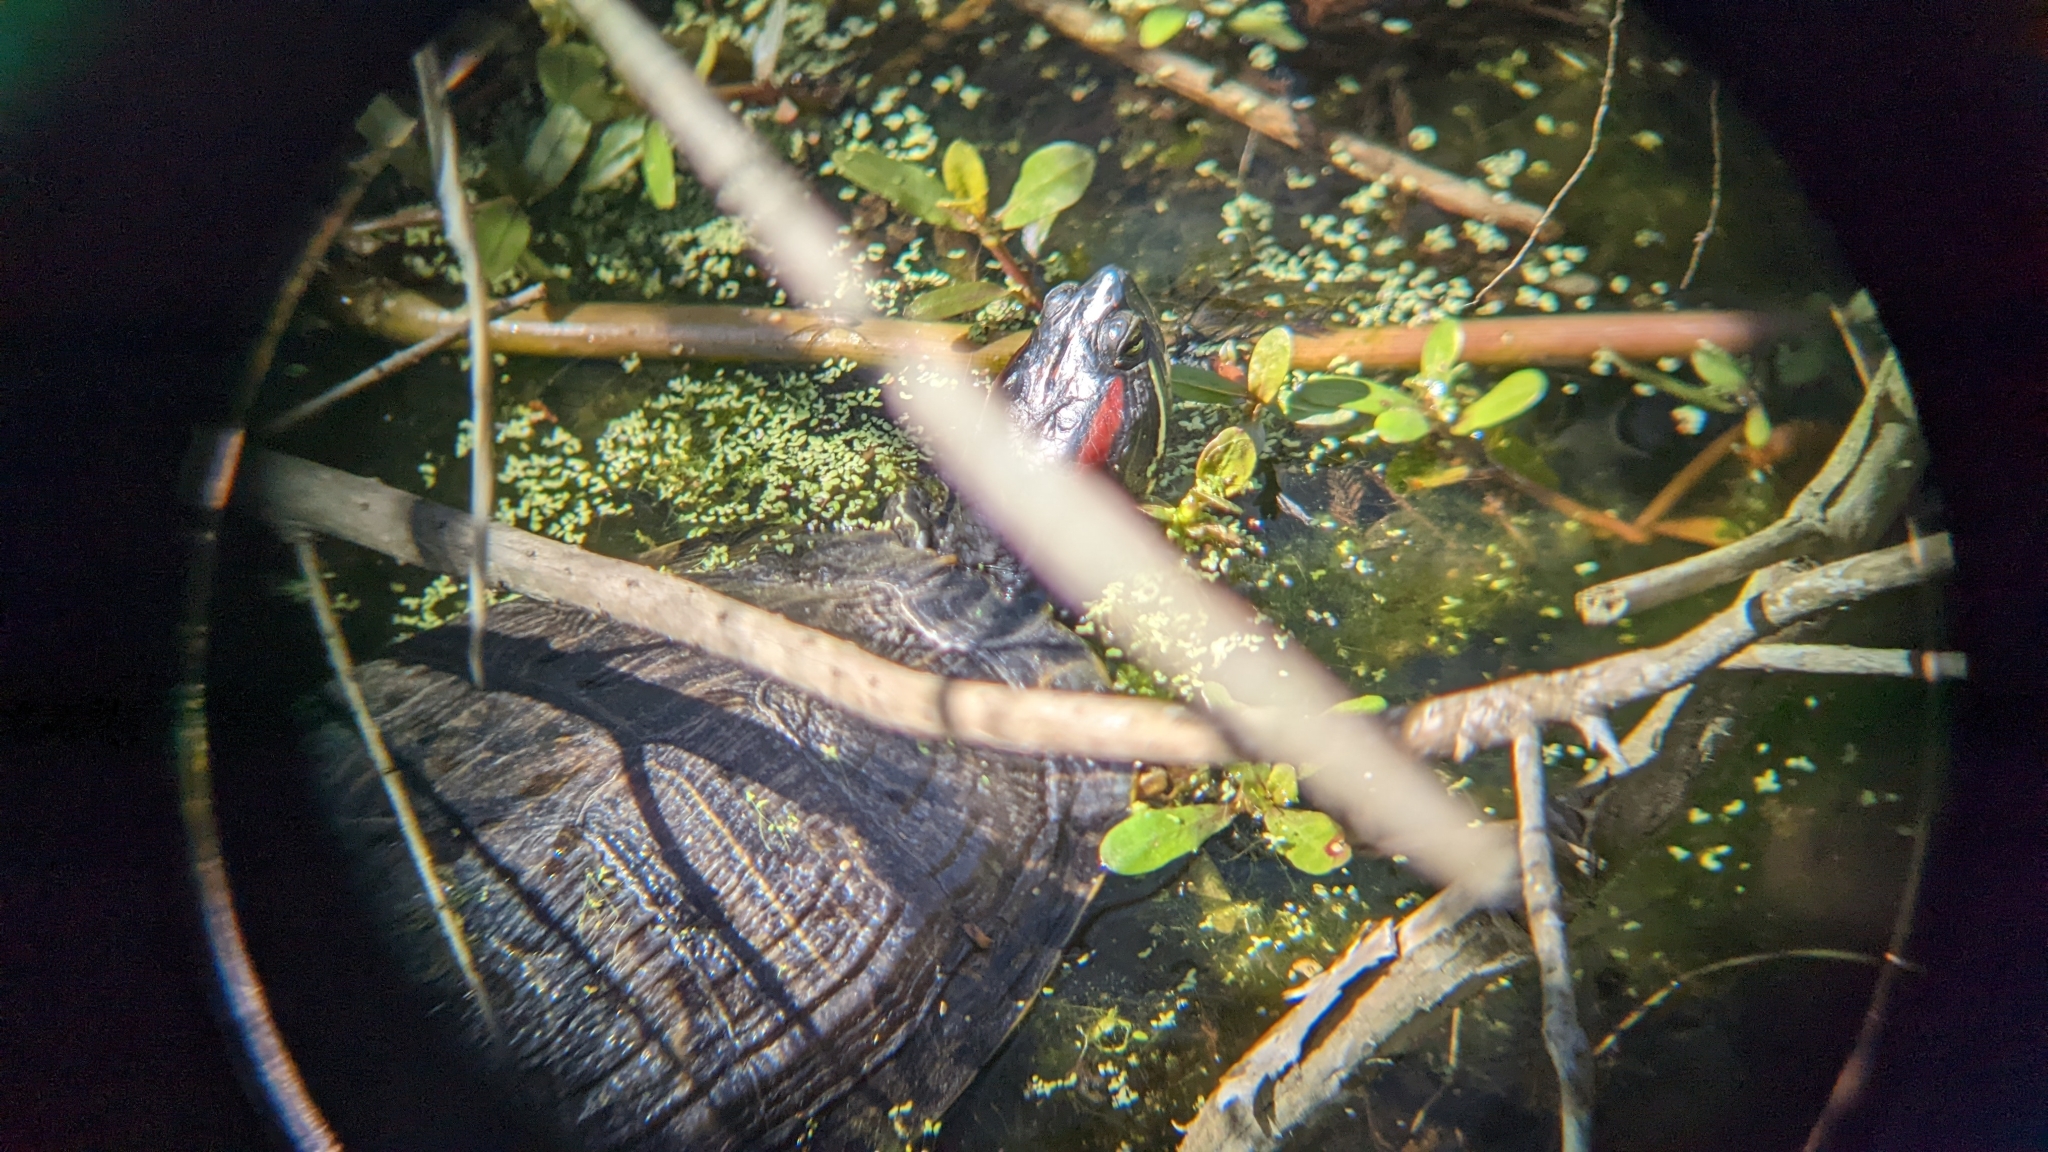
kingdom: Animalia
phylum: Chordata
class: Testudines
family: Emydidae
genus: Trachemys
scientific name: Trachemys scripta
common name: Slider
